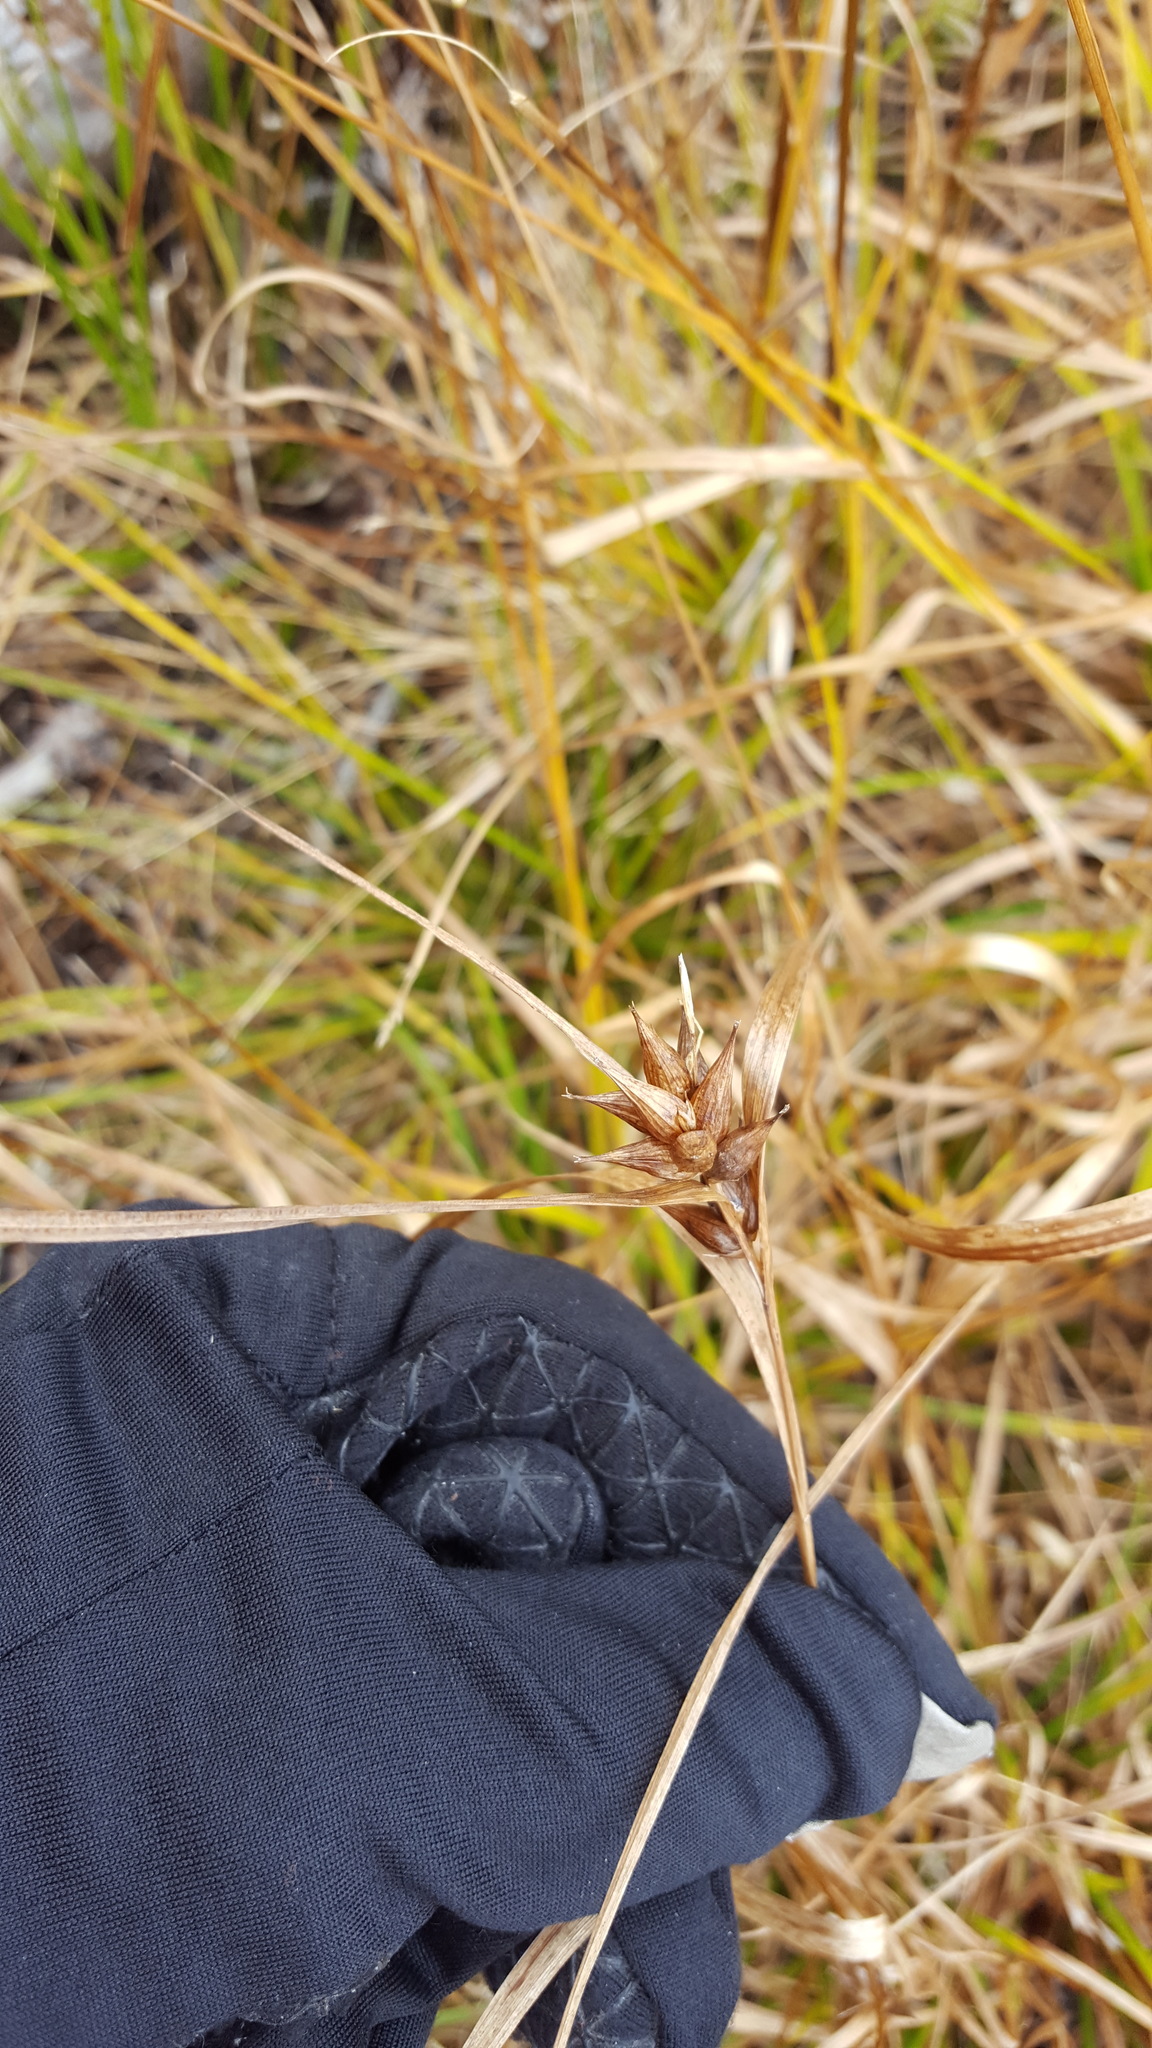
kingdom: Plantae
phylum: Tracheophyta
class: Liliopsida
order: Poales
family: Cyperaceae
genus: Carex
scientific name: Carex intumescens
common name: Greater bladder sedge
